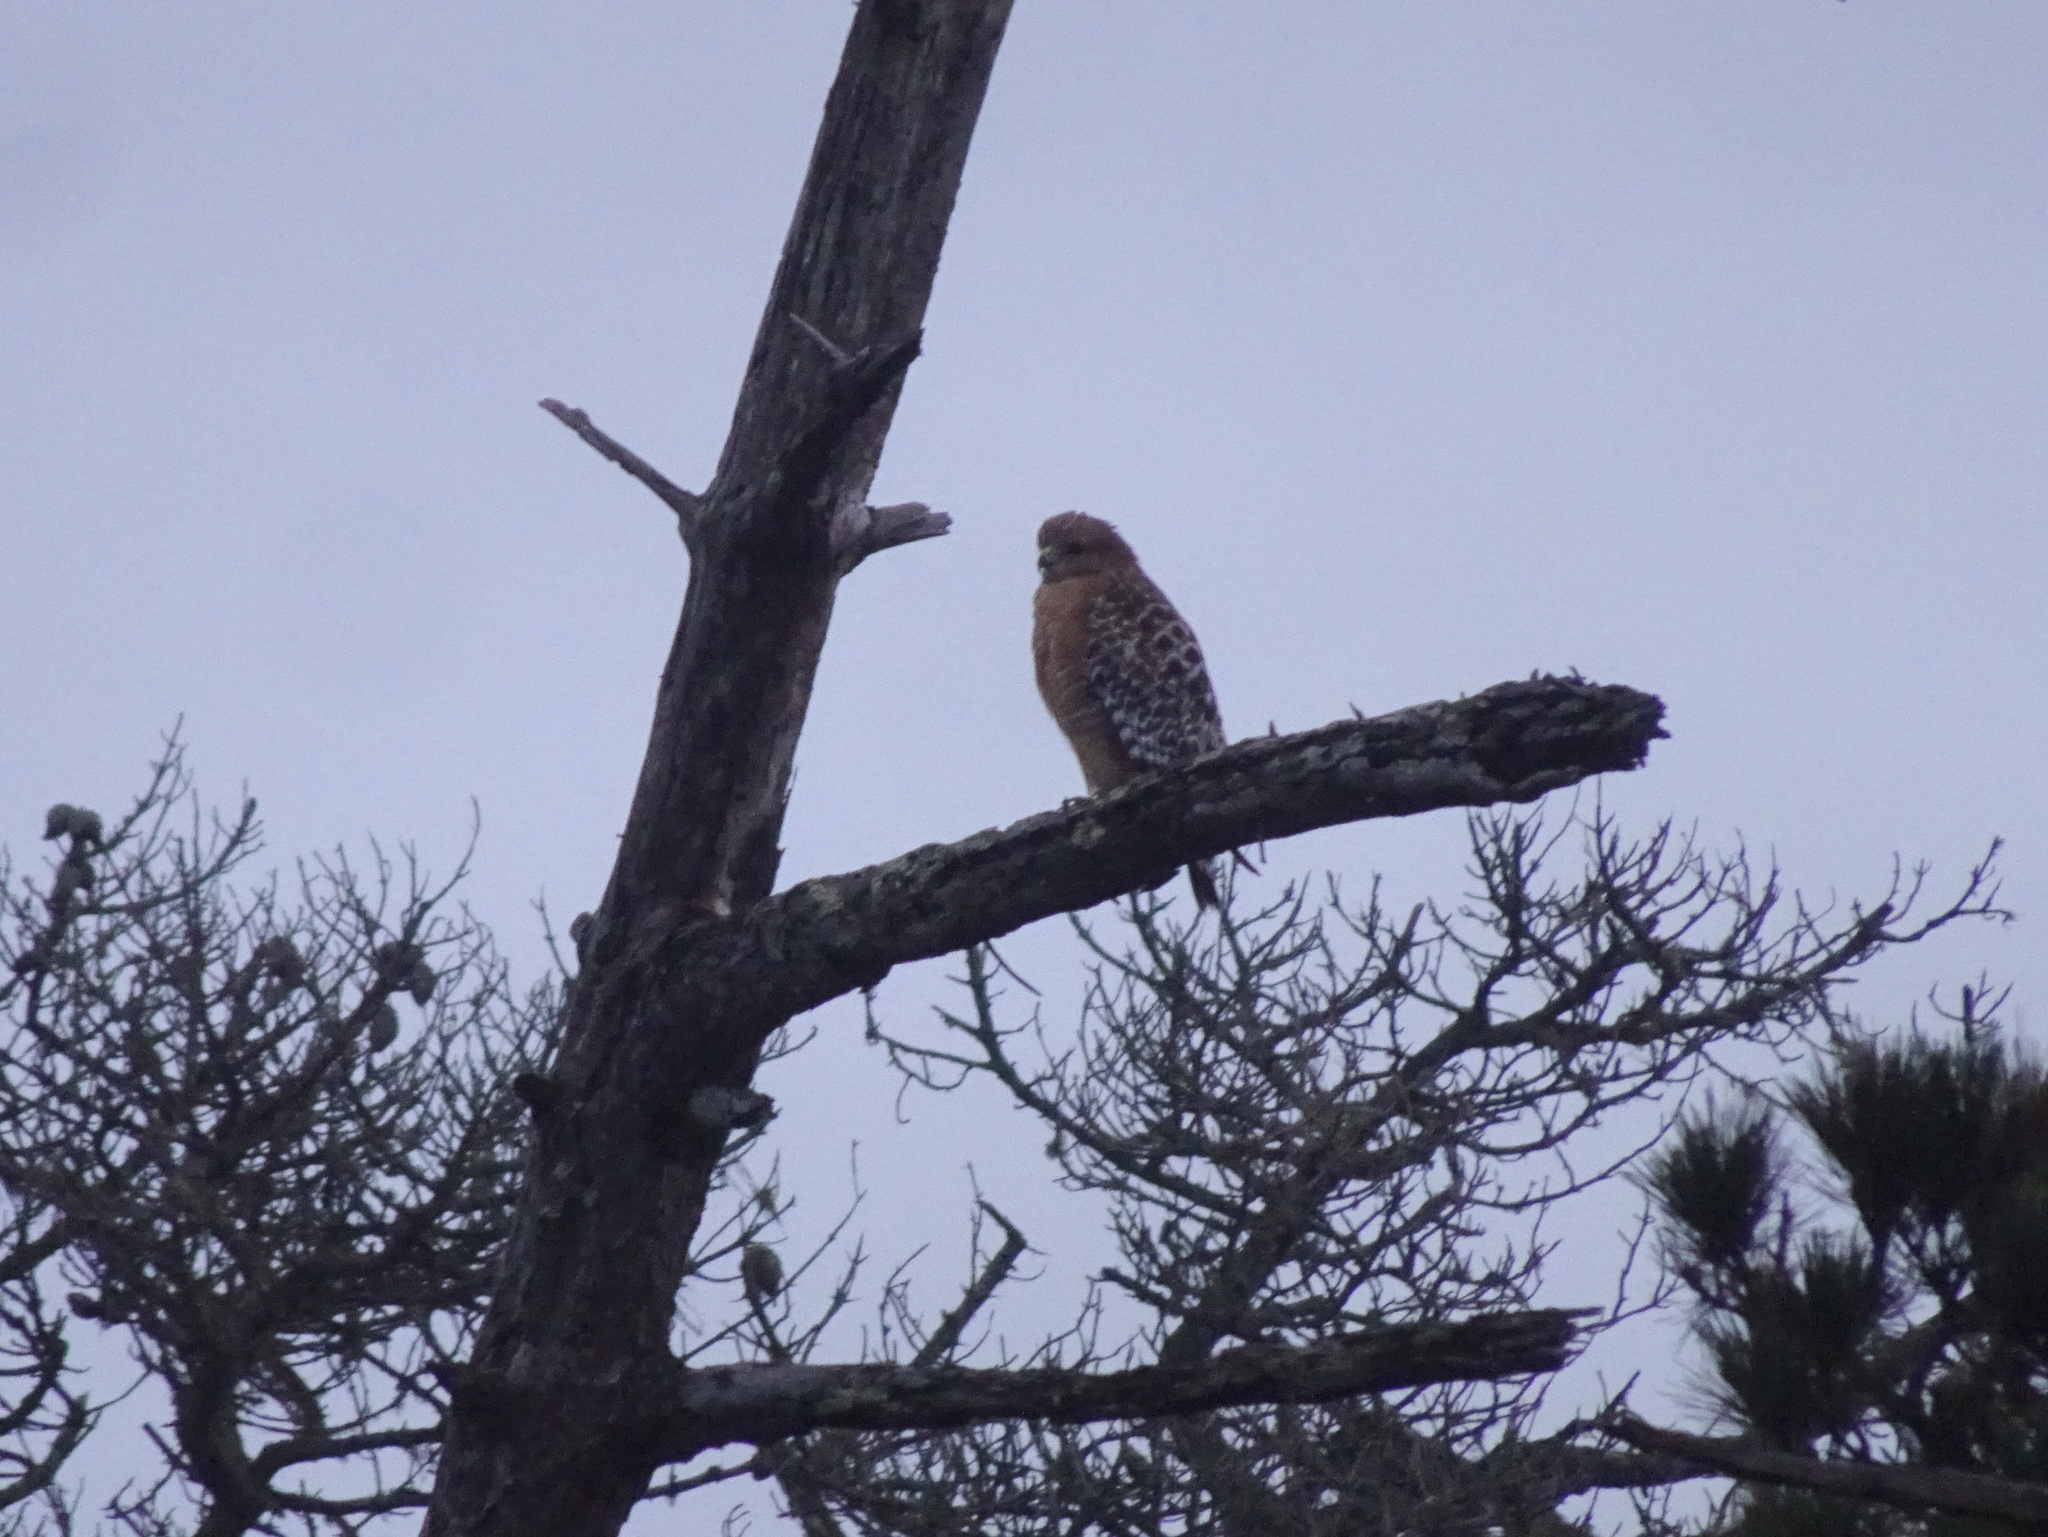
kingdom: Animalia
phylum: Chordata
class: Aves
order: Accipitriformes
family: Accipitridae
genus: Buteo
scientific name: Buteo lineatus
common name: Red-shouldered hawk
